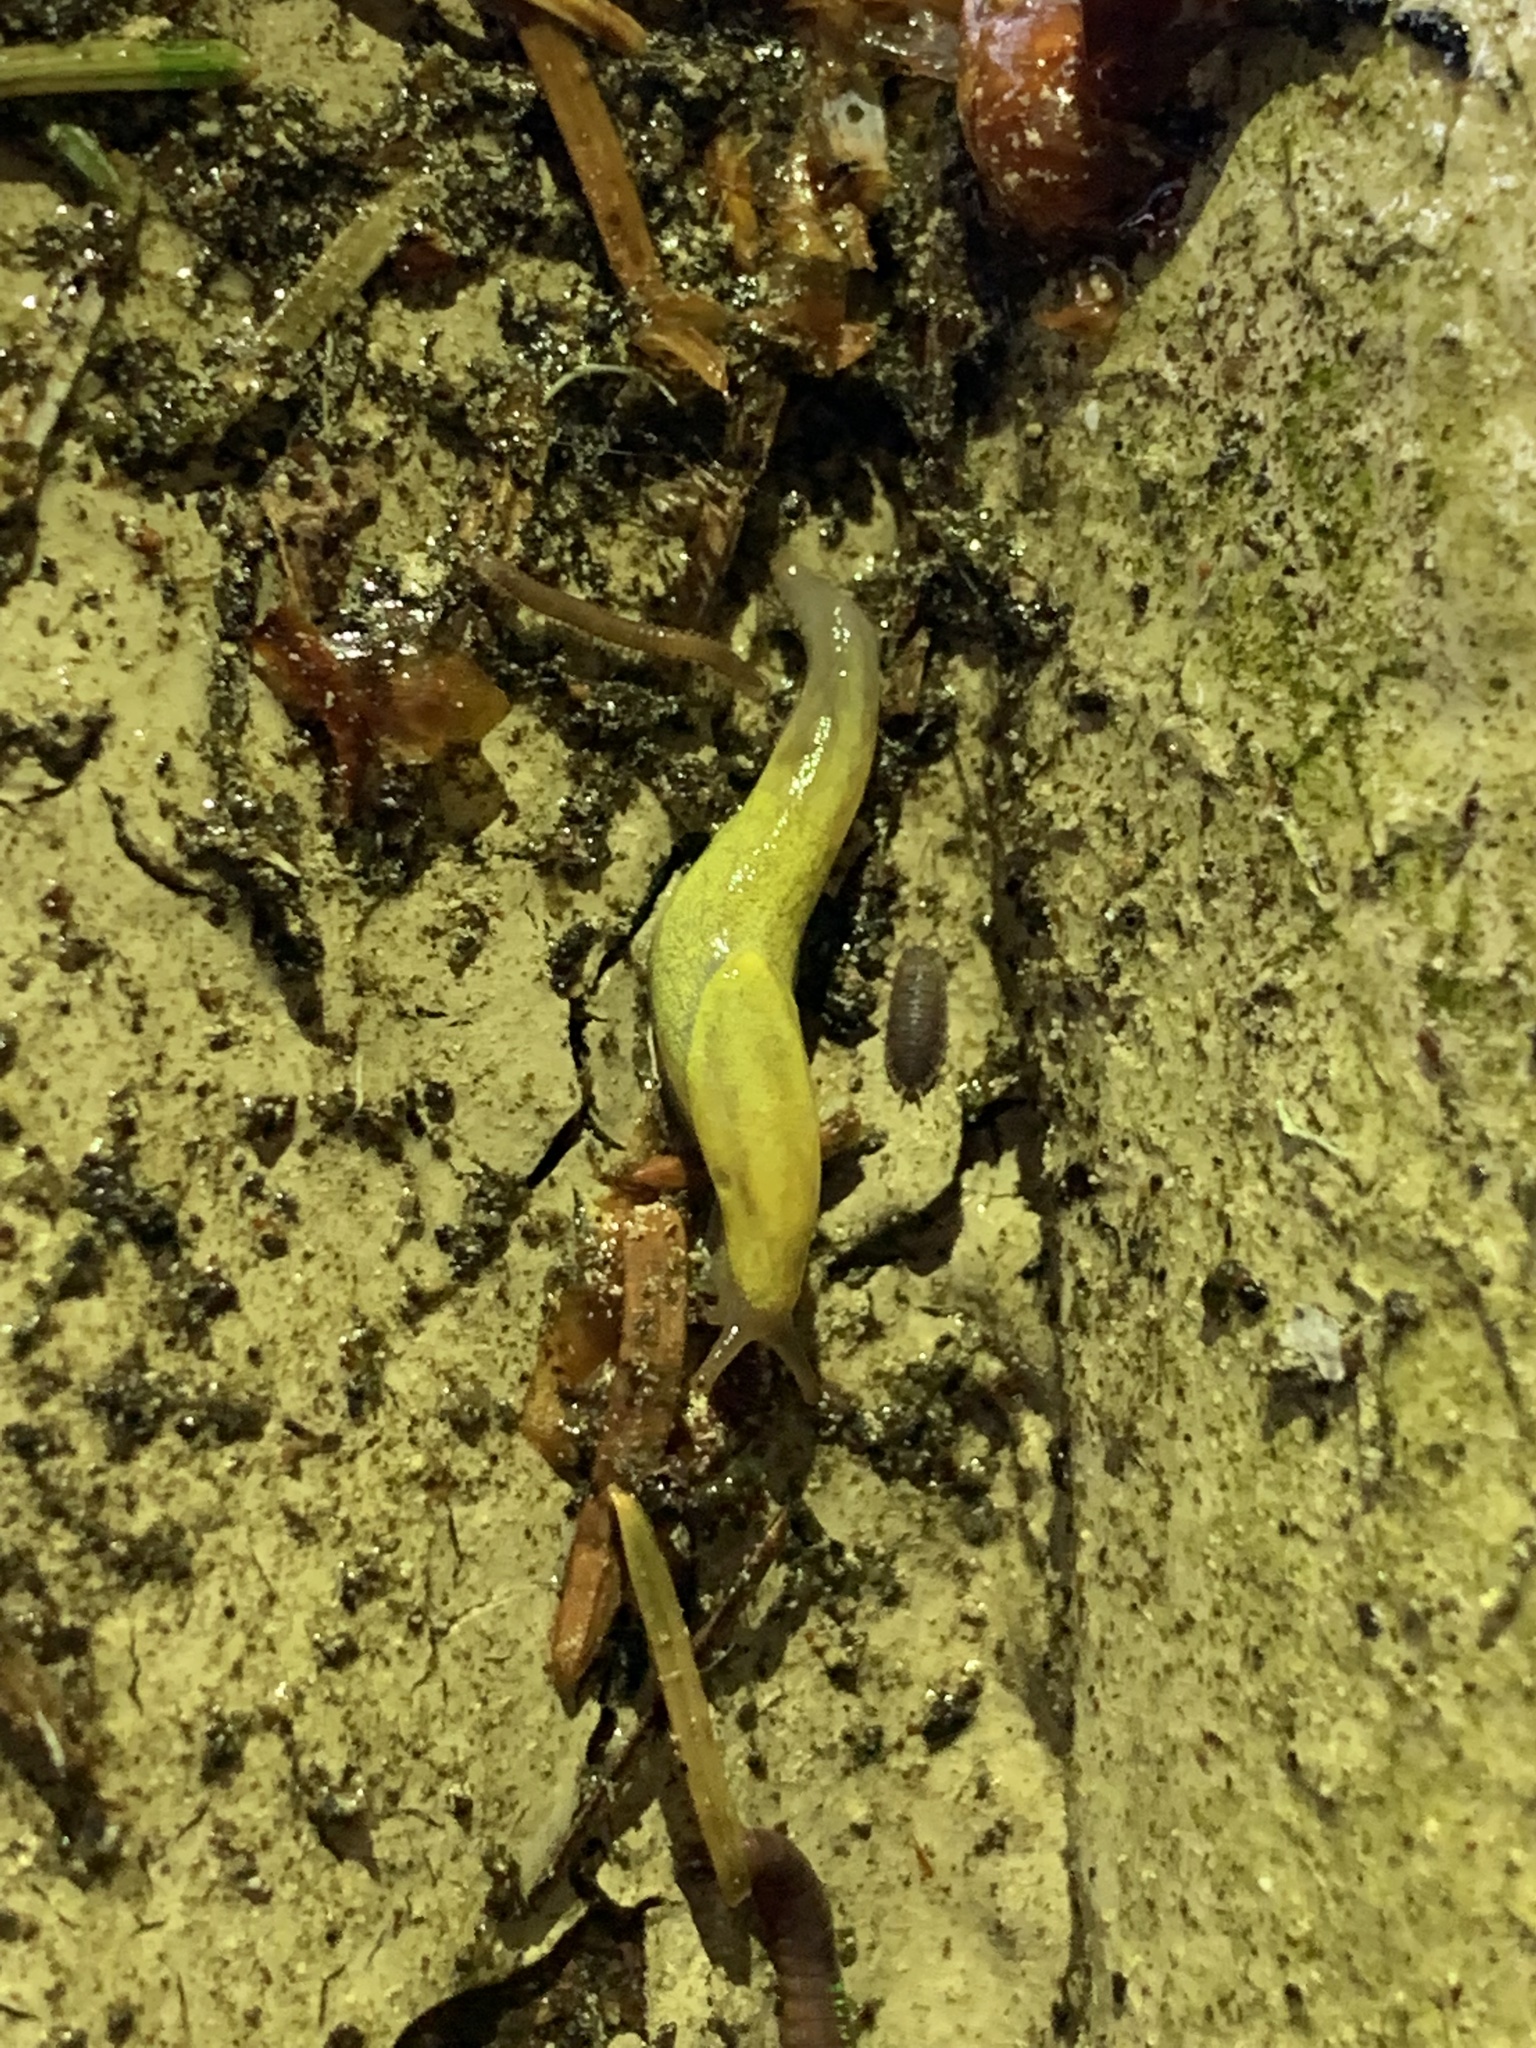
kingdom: Animalia
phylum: Mollusca
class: Gastropoda
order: Stylommatophora
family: Ariolimacidae
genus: Prophysaon
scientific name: Prophysaon foliolatum
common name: Yellow-bordered taildropper
